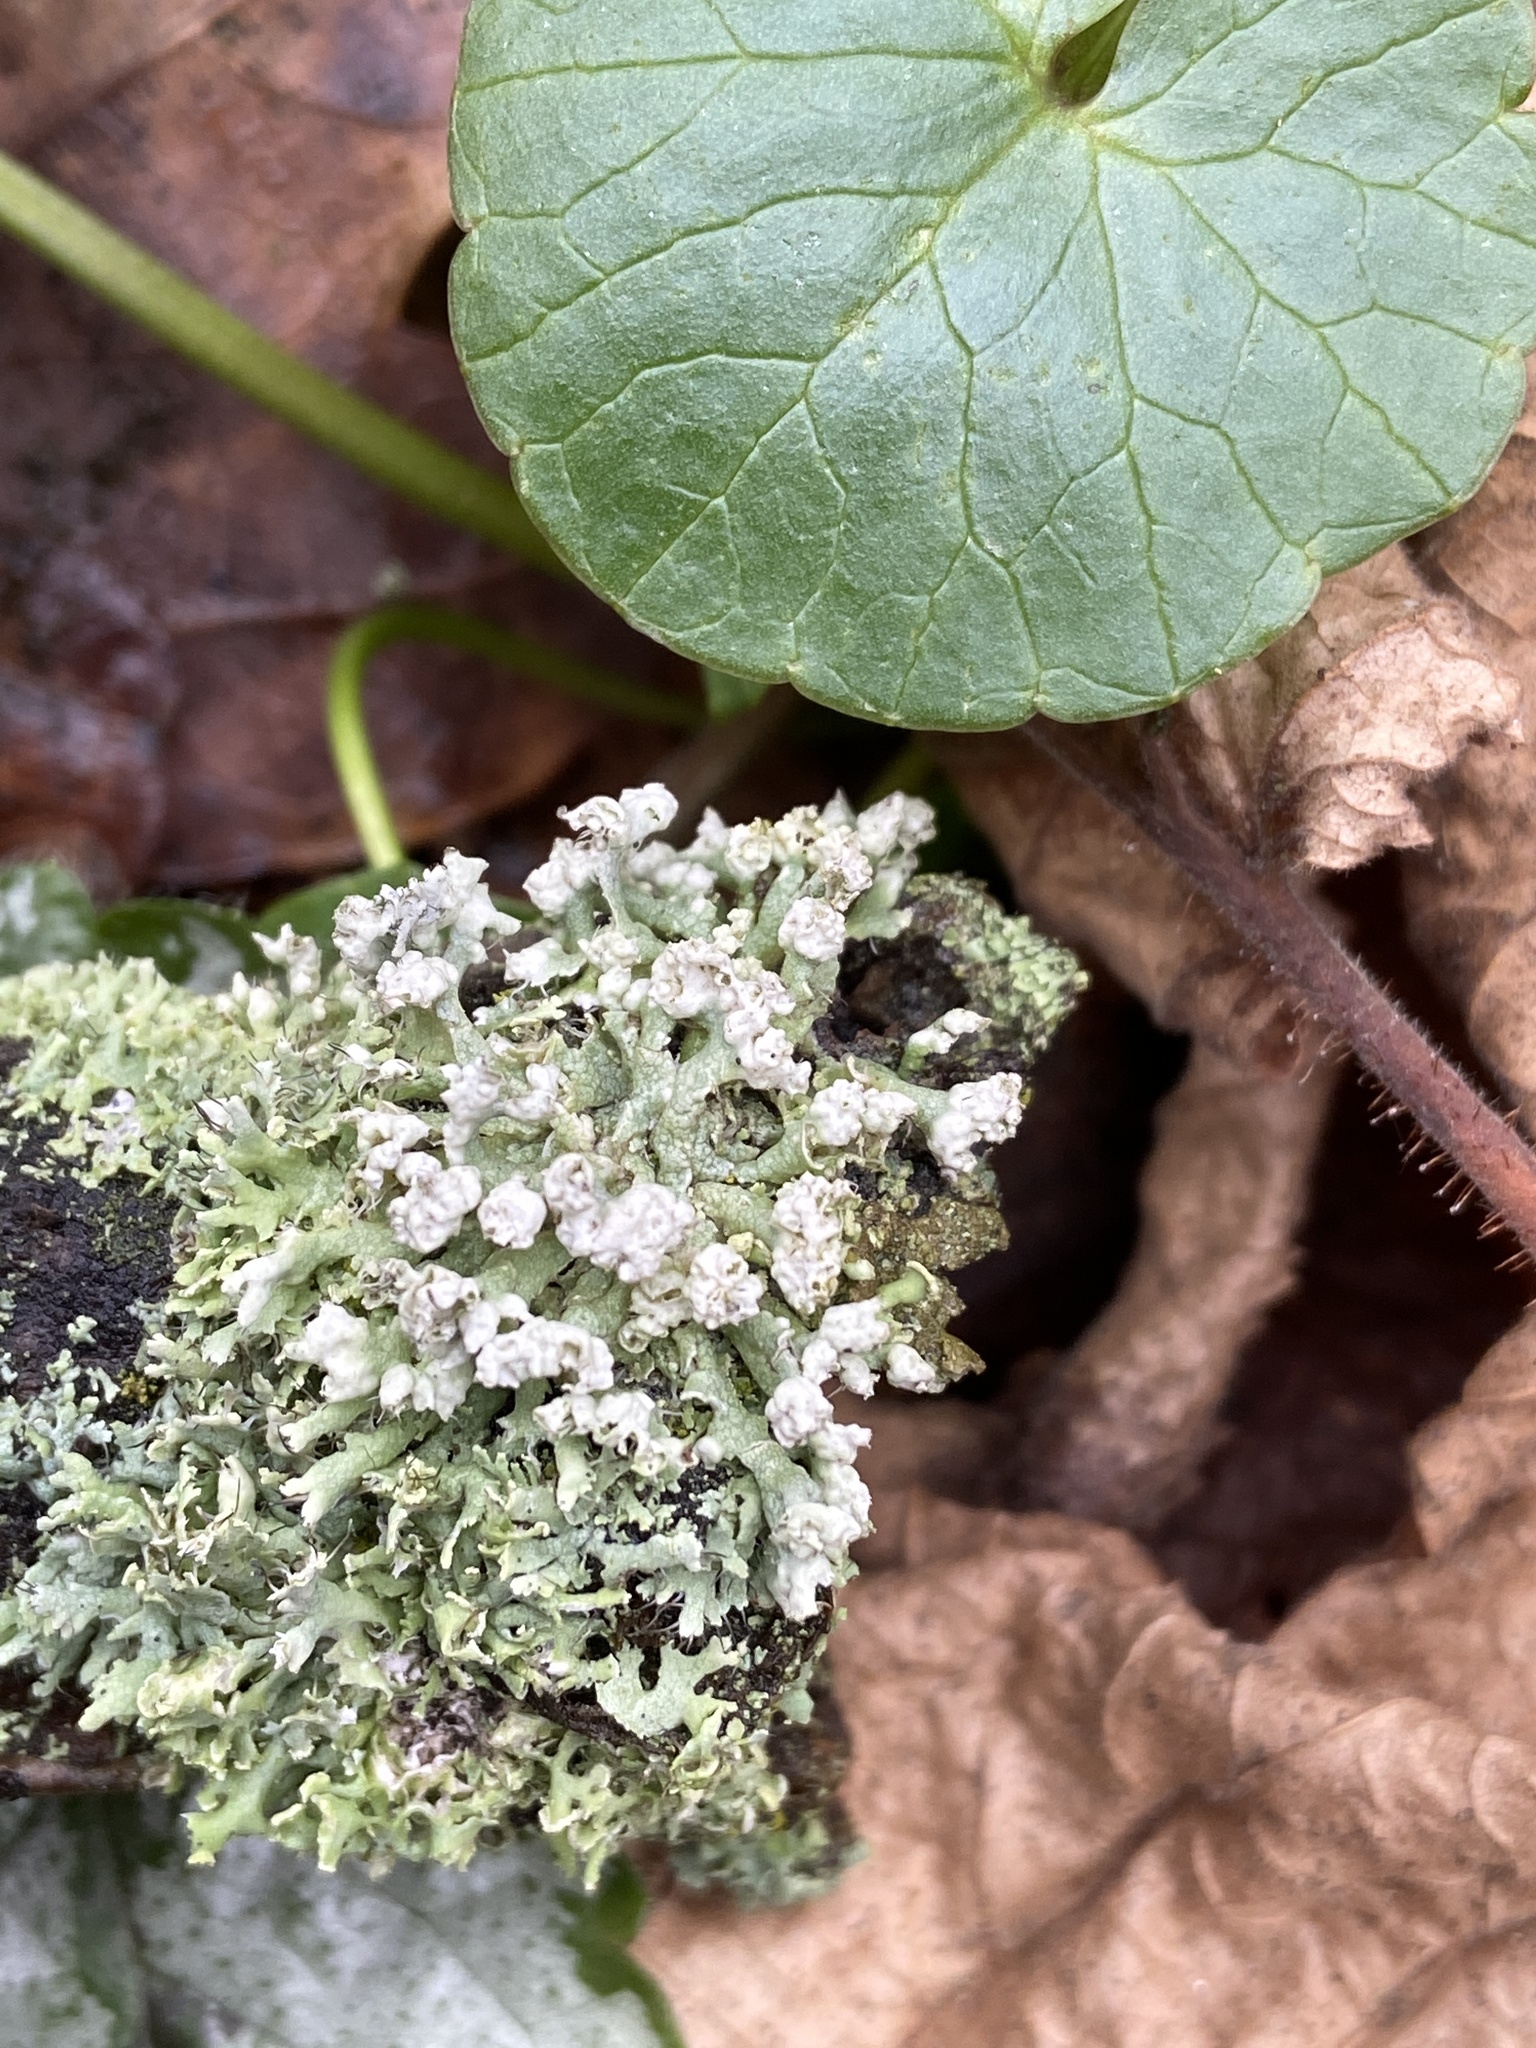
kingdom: Fungi
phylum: Ascomycota
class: Lecanoromycetes
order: Caliciales
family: Physciaceae
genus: Physcia
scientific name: Physcia adscendens
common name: Hooded rosette lichen
